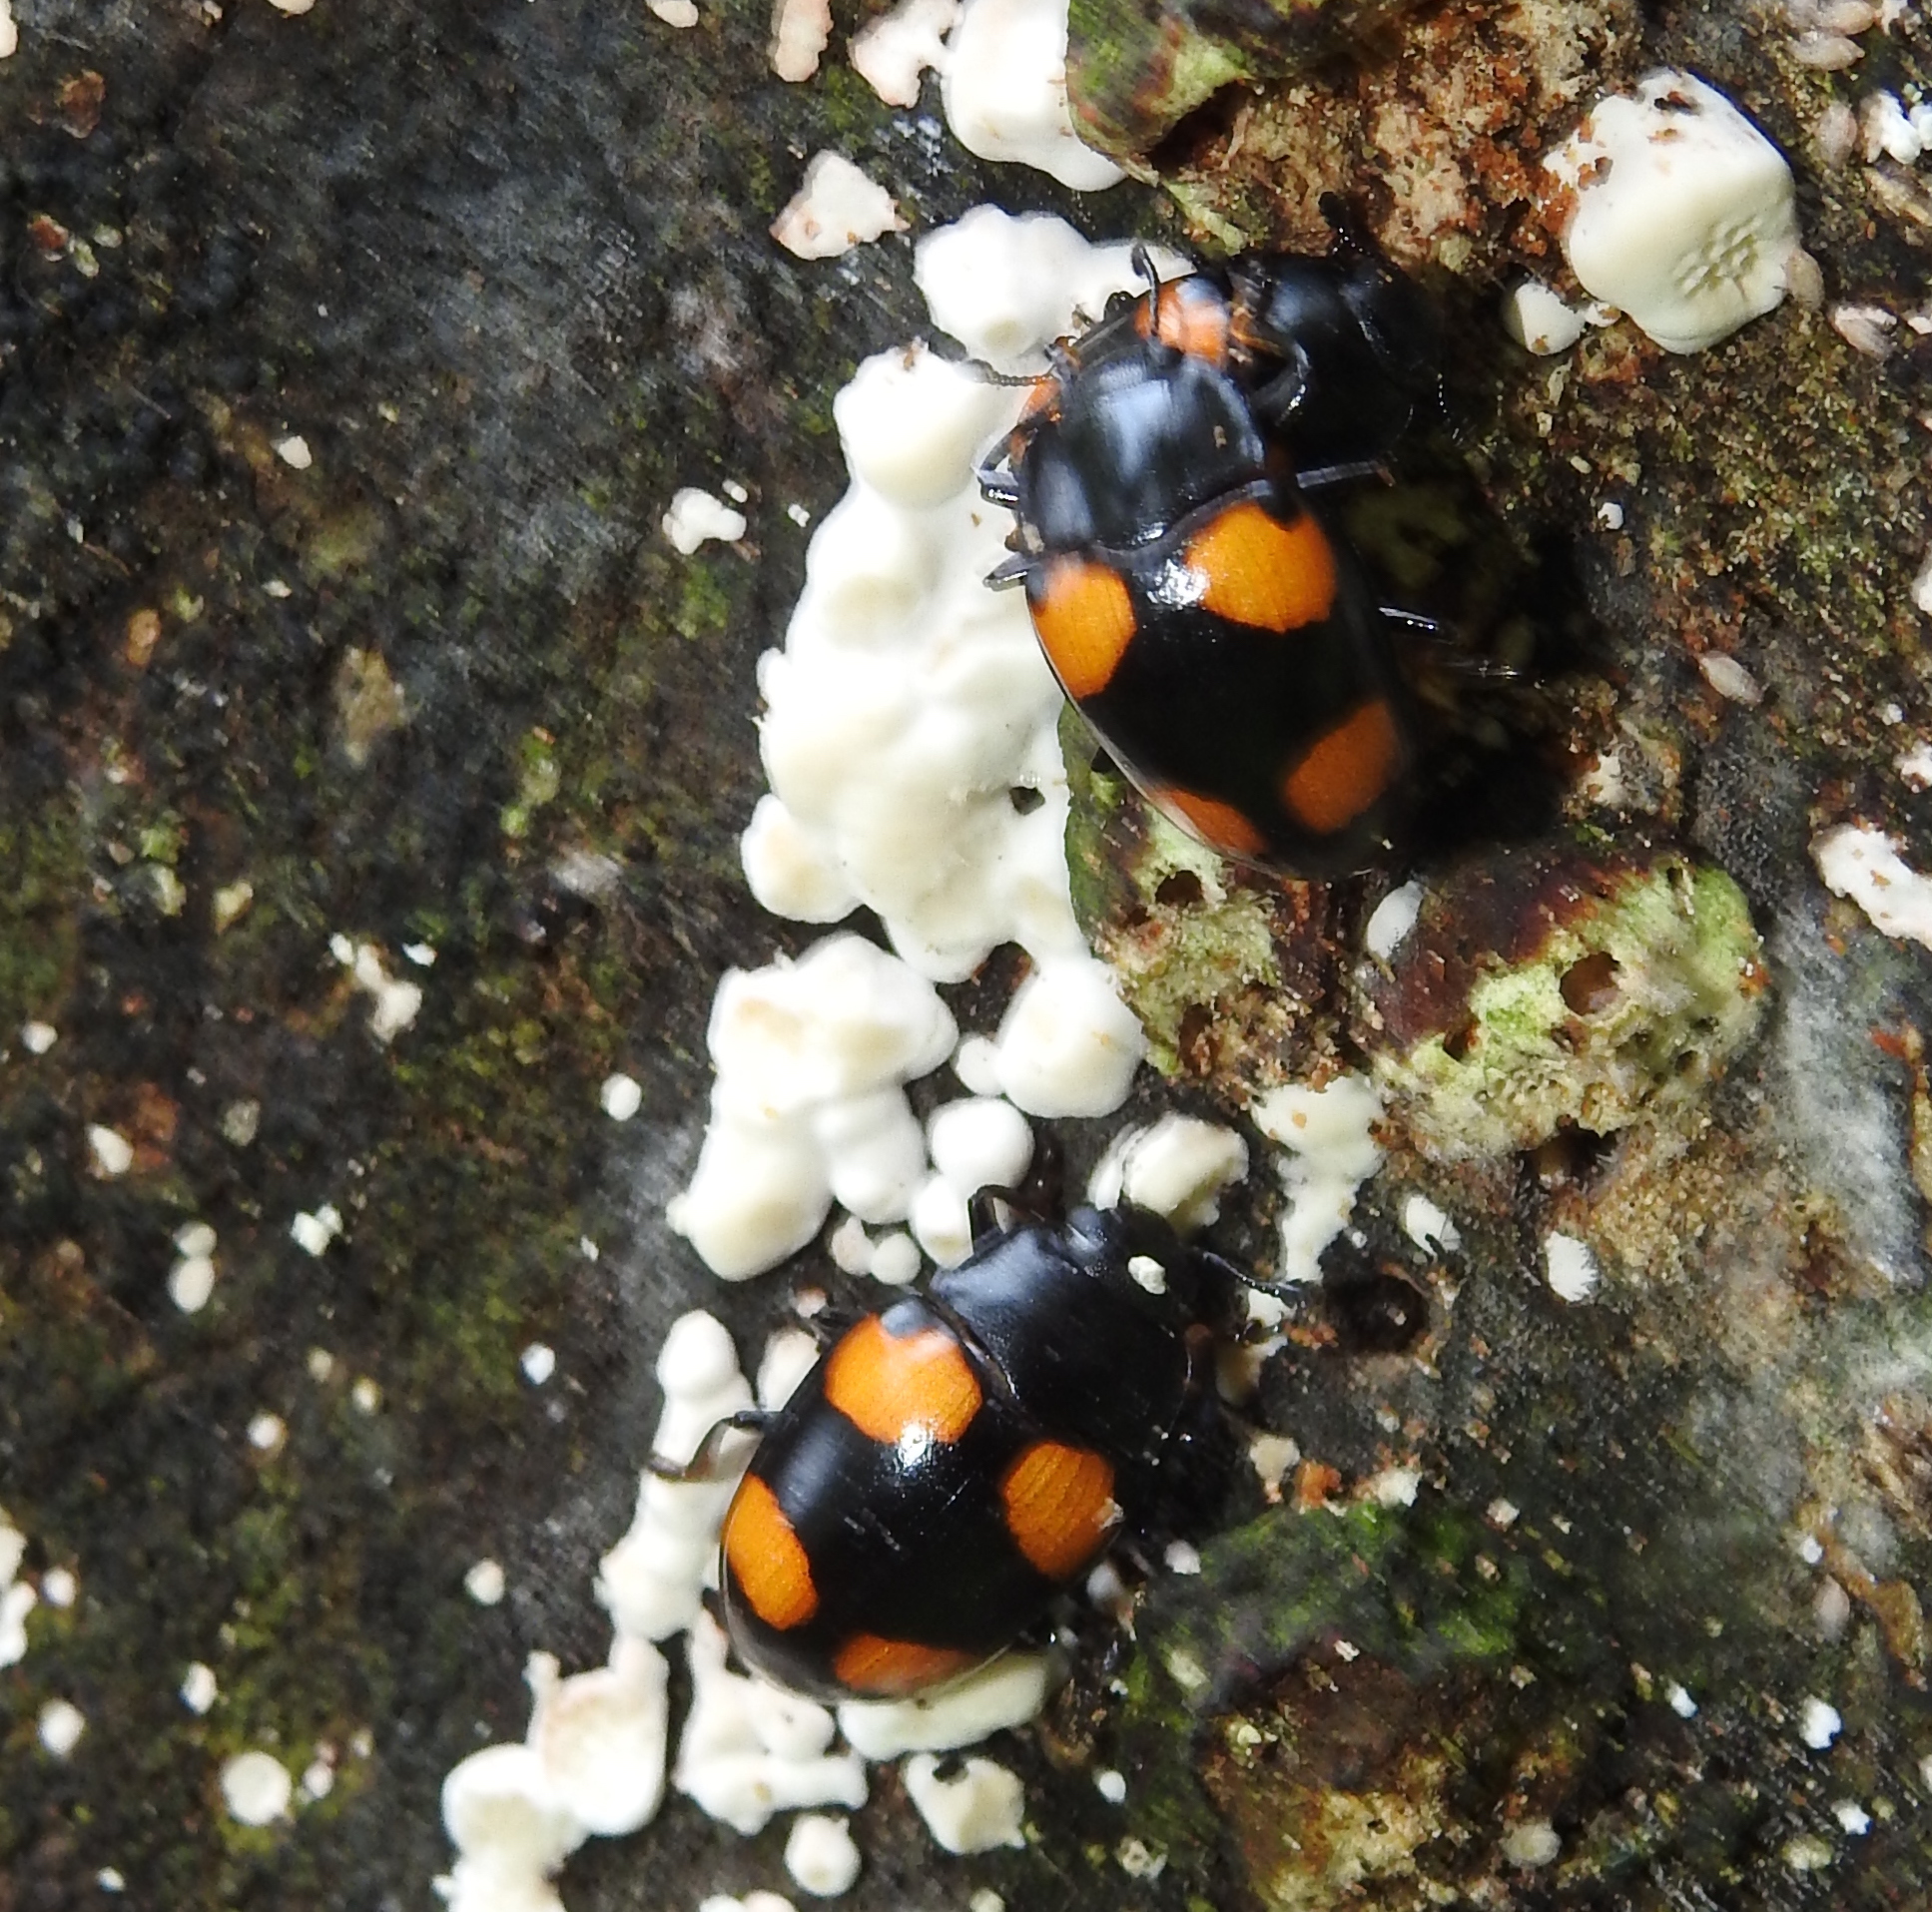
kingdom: Animalia
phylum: Arthropoda
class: Insecta
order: Coleoptera
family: Erotylidae
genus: Aulacocheilus
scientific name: Aulacocheilus
